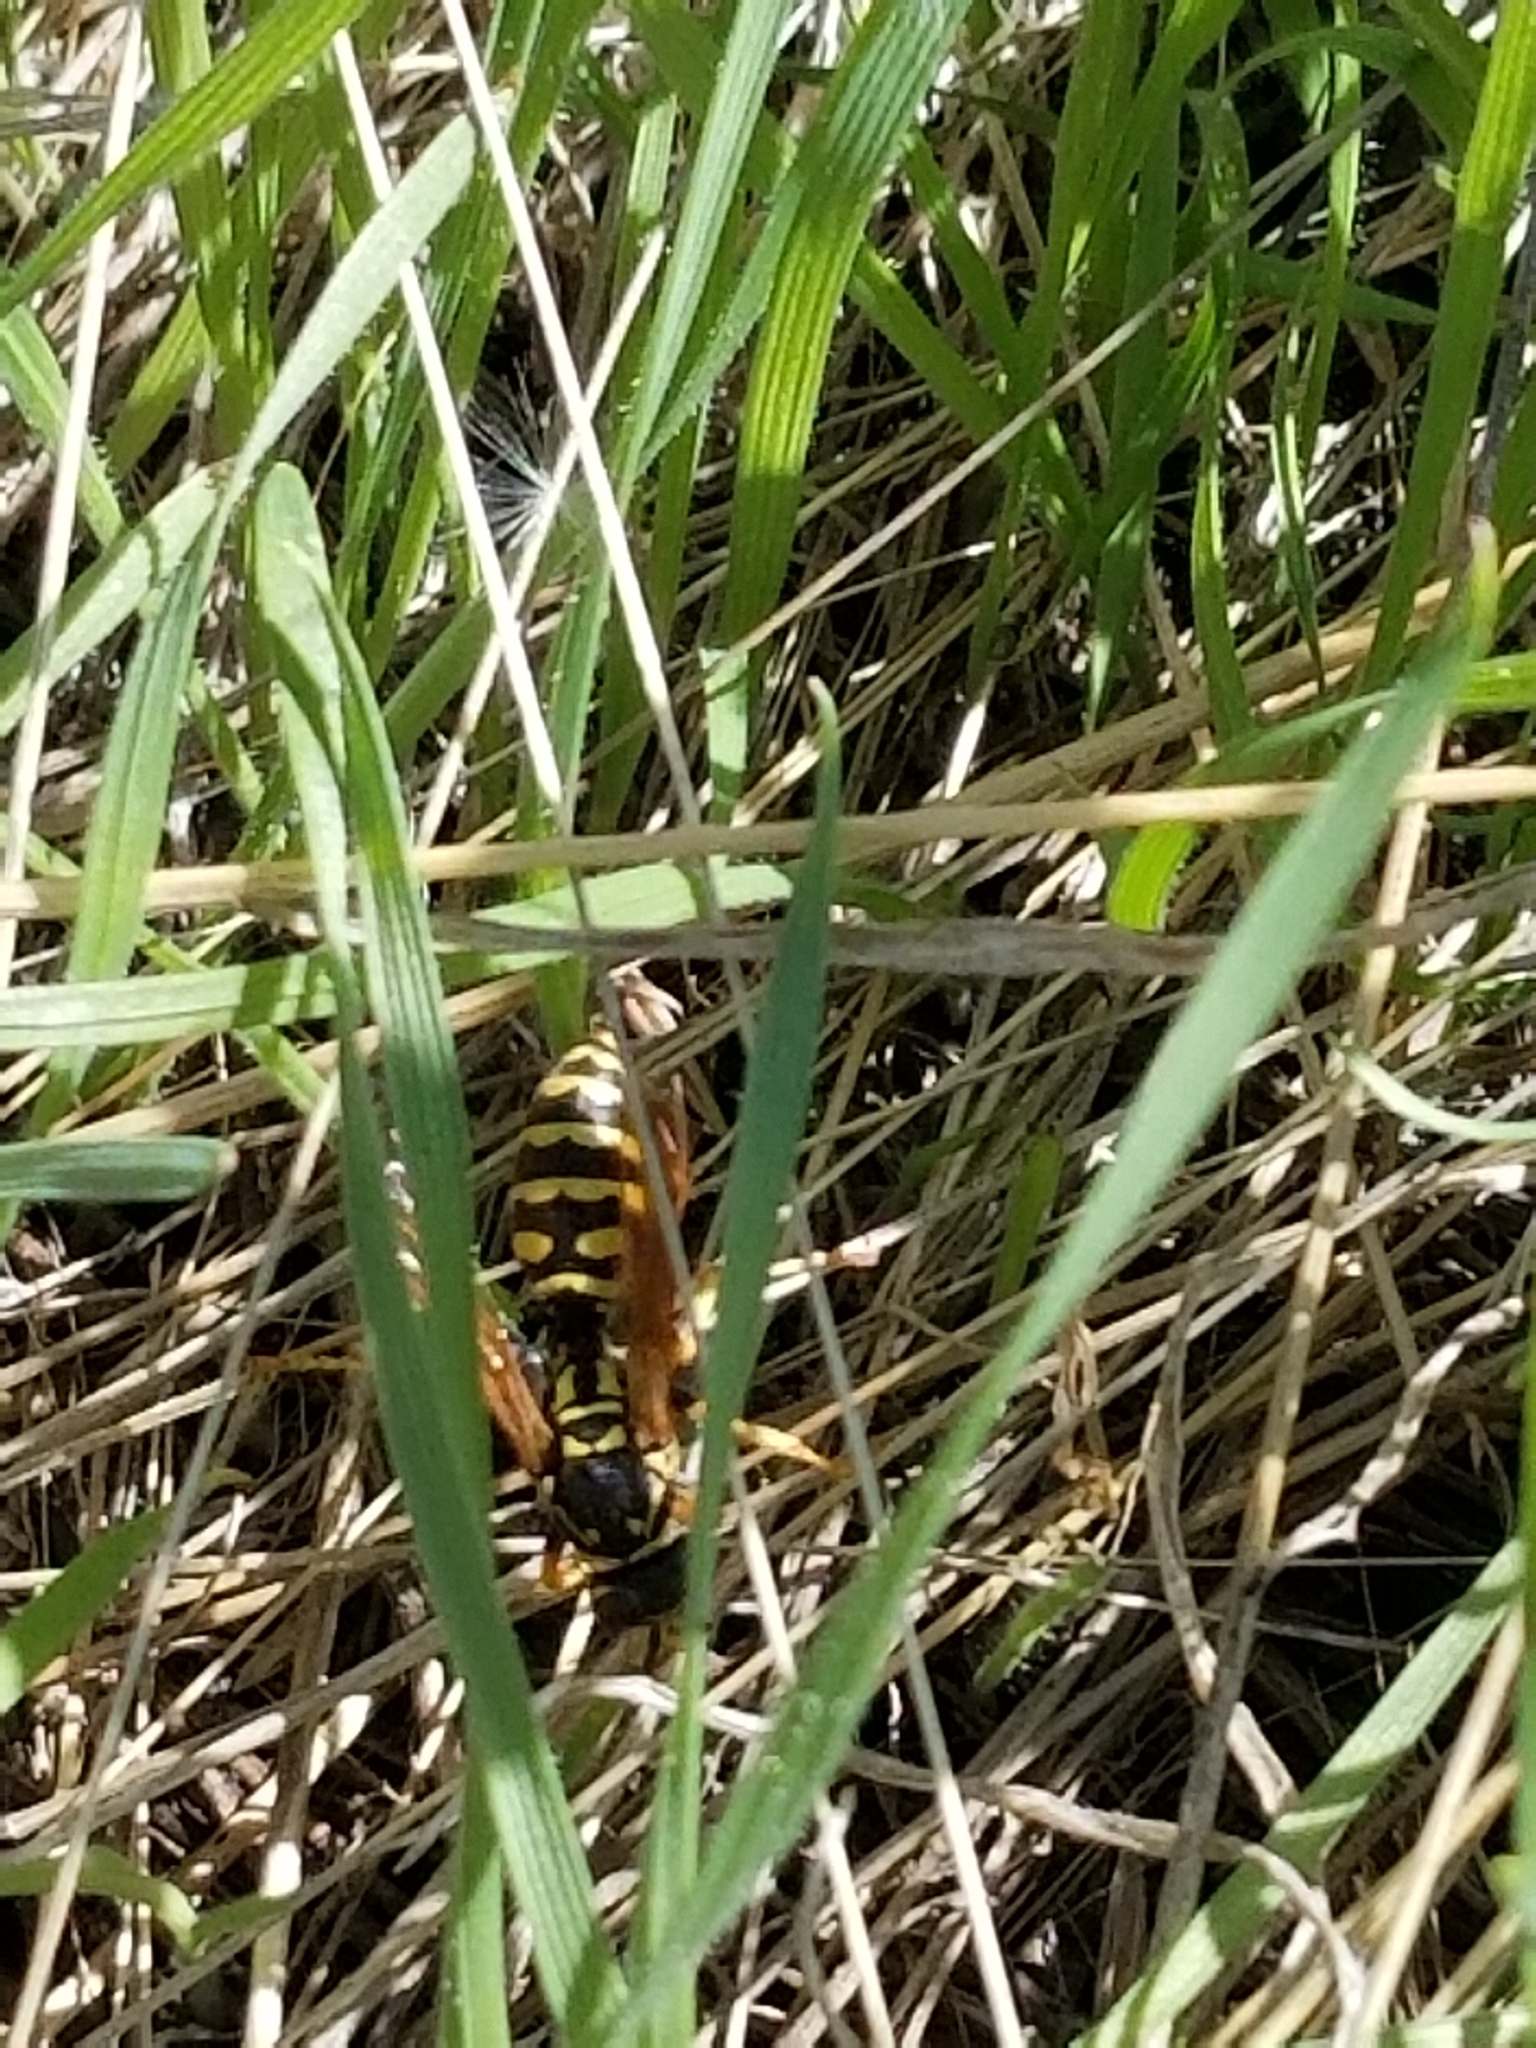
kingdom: Animalia
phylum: Arthropoda
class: Insecta
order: Hymenoptera
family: Eumenidae
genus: Polistes
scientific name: Polistes dominula
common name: Paper wasp
